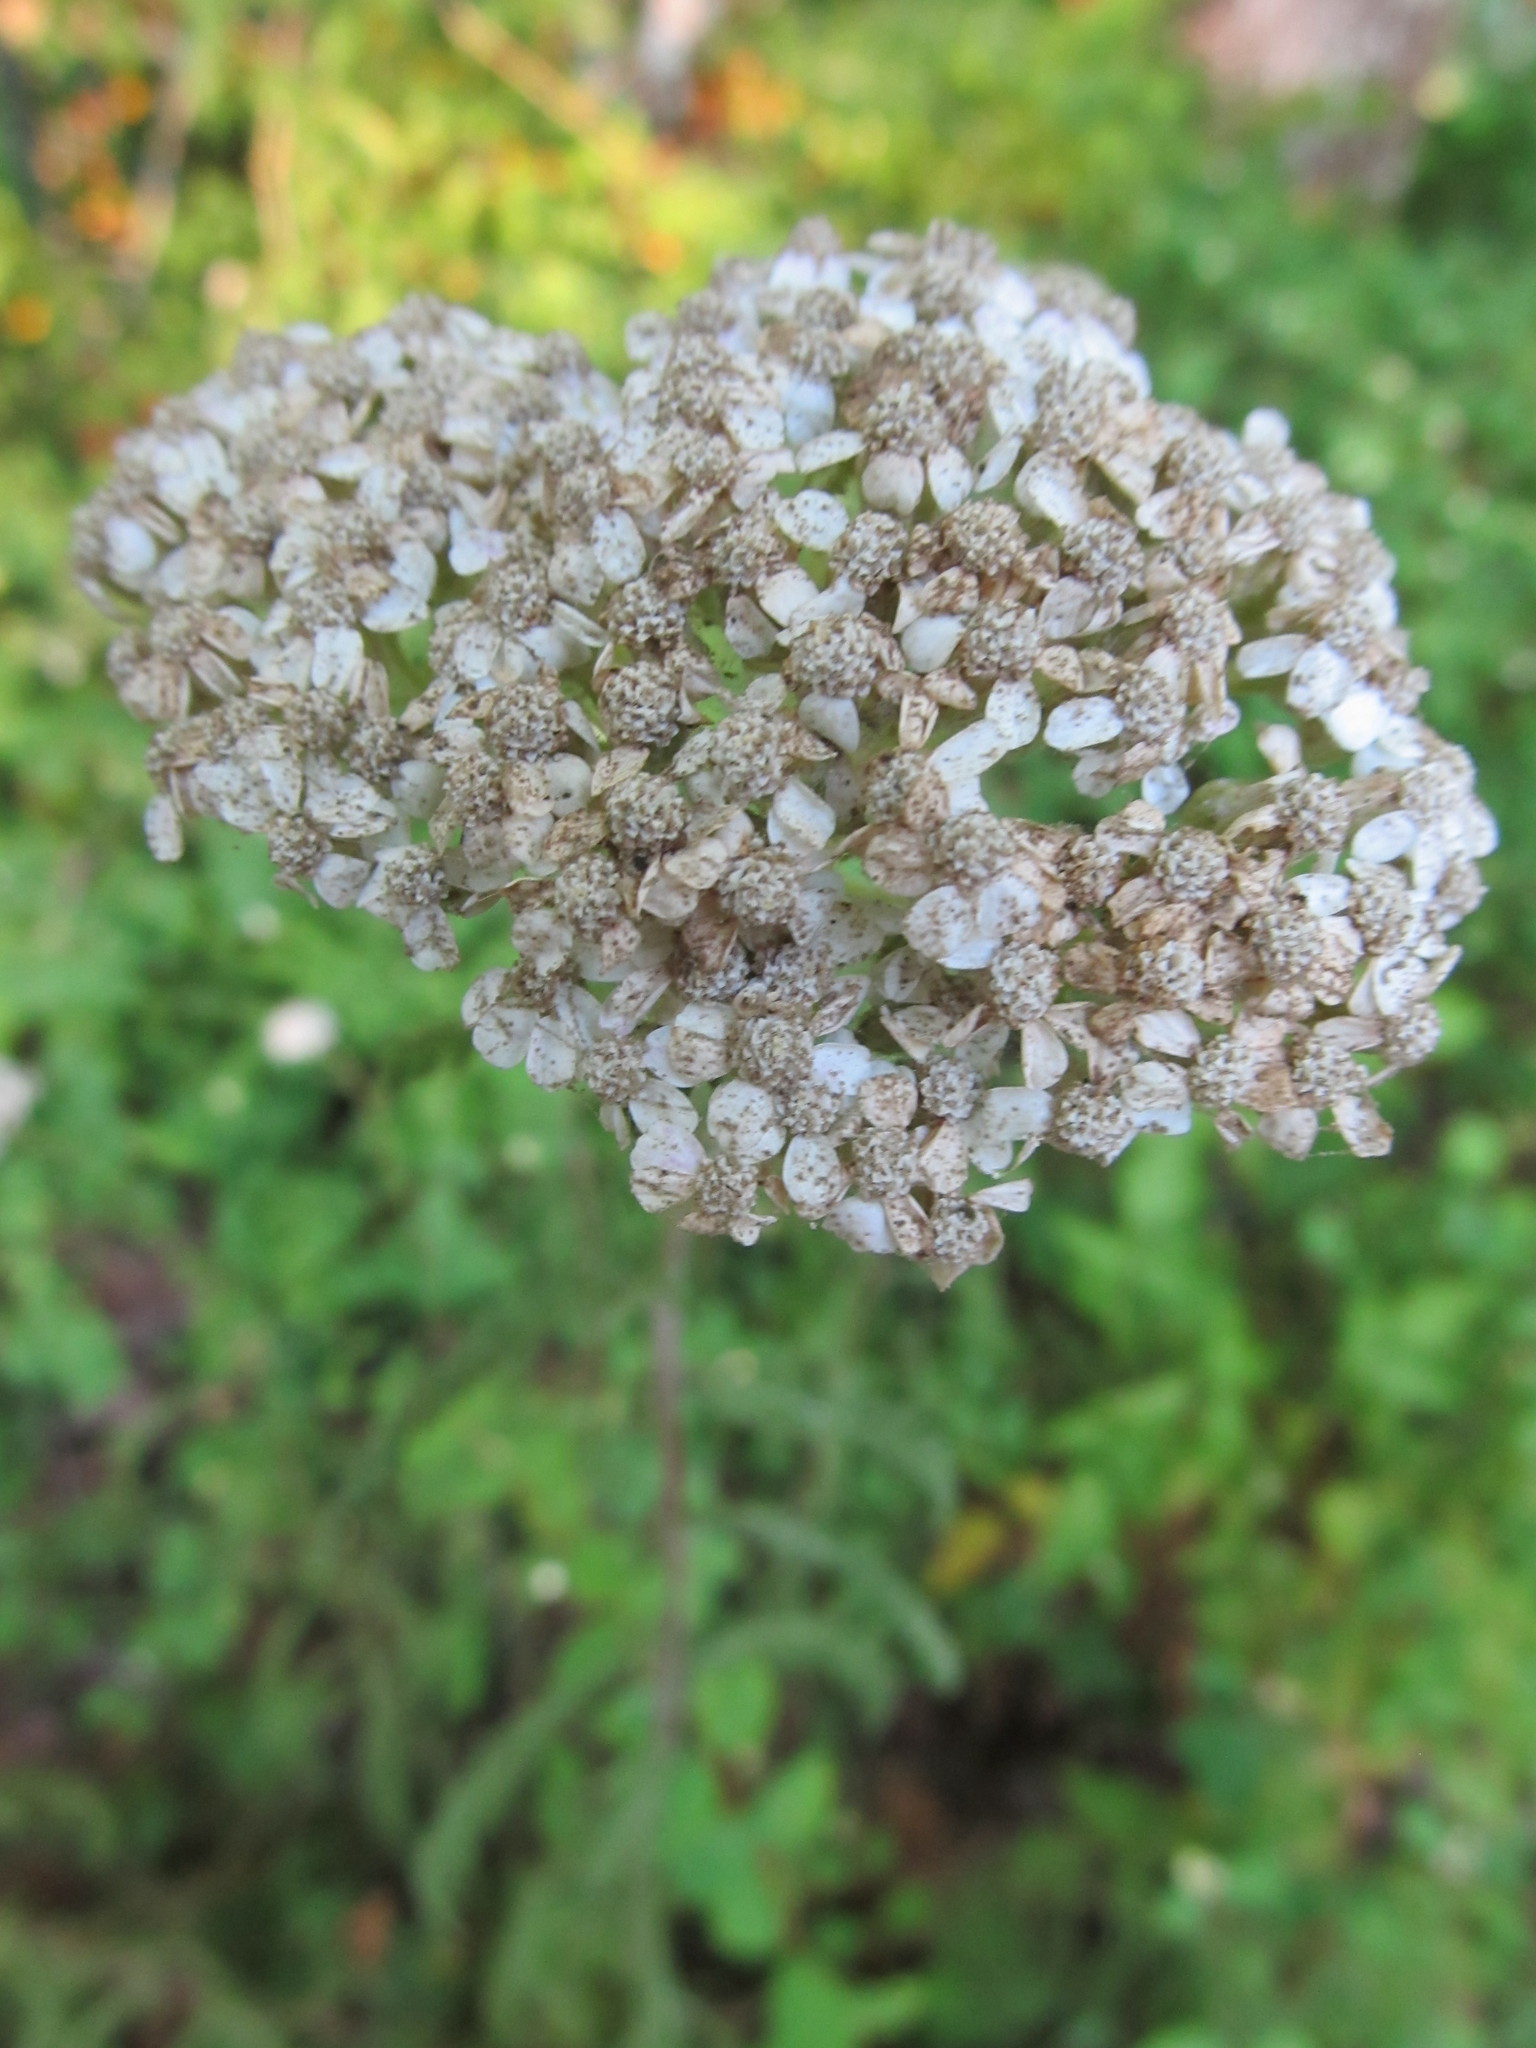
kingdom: Plantae
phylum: Tracheophyta
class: Magnoliopsida
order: Asterales
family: Asteraceae
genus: Achillea
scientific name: Achillea millefolium
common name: Yarrow
